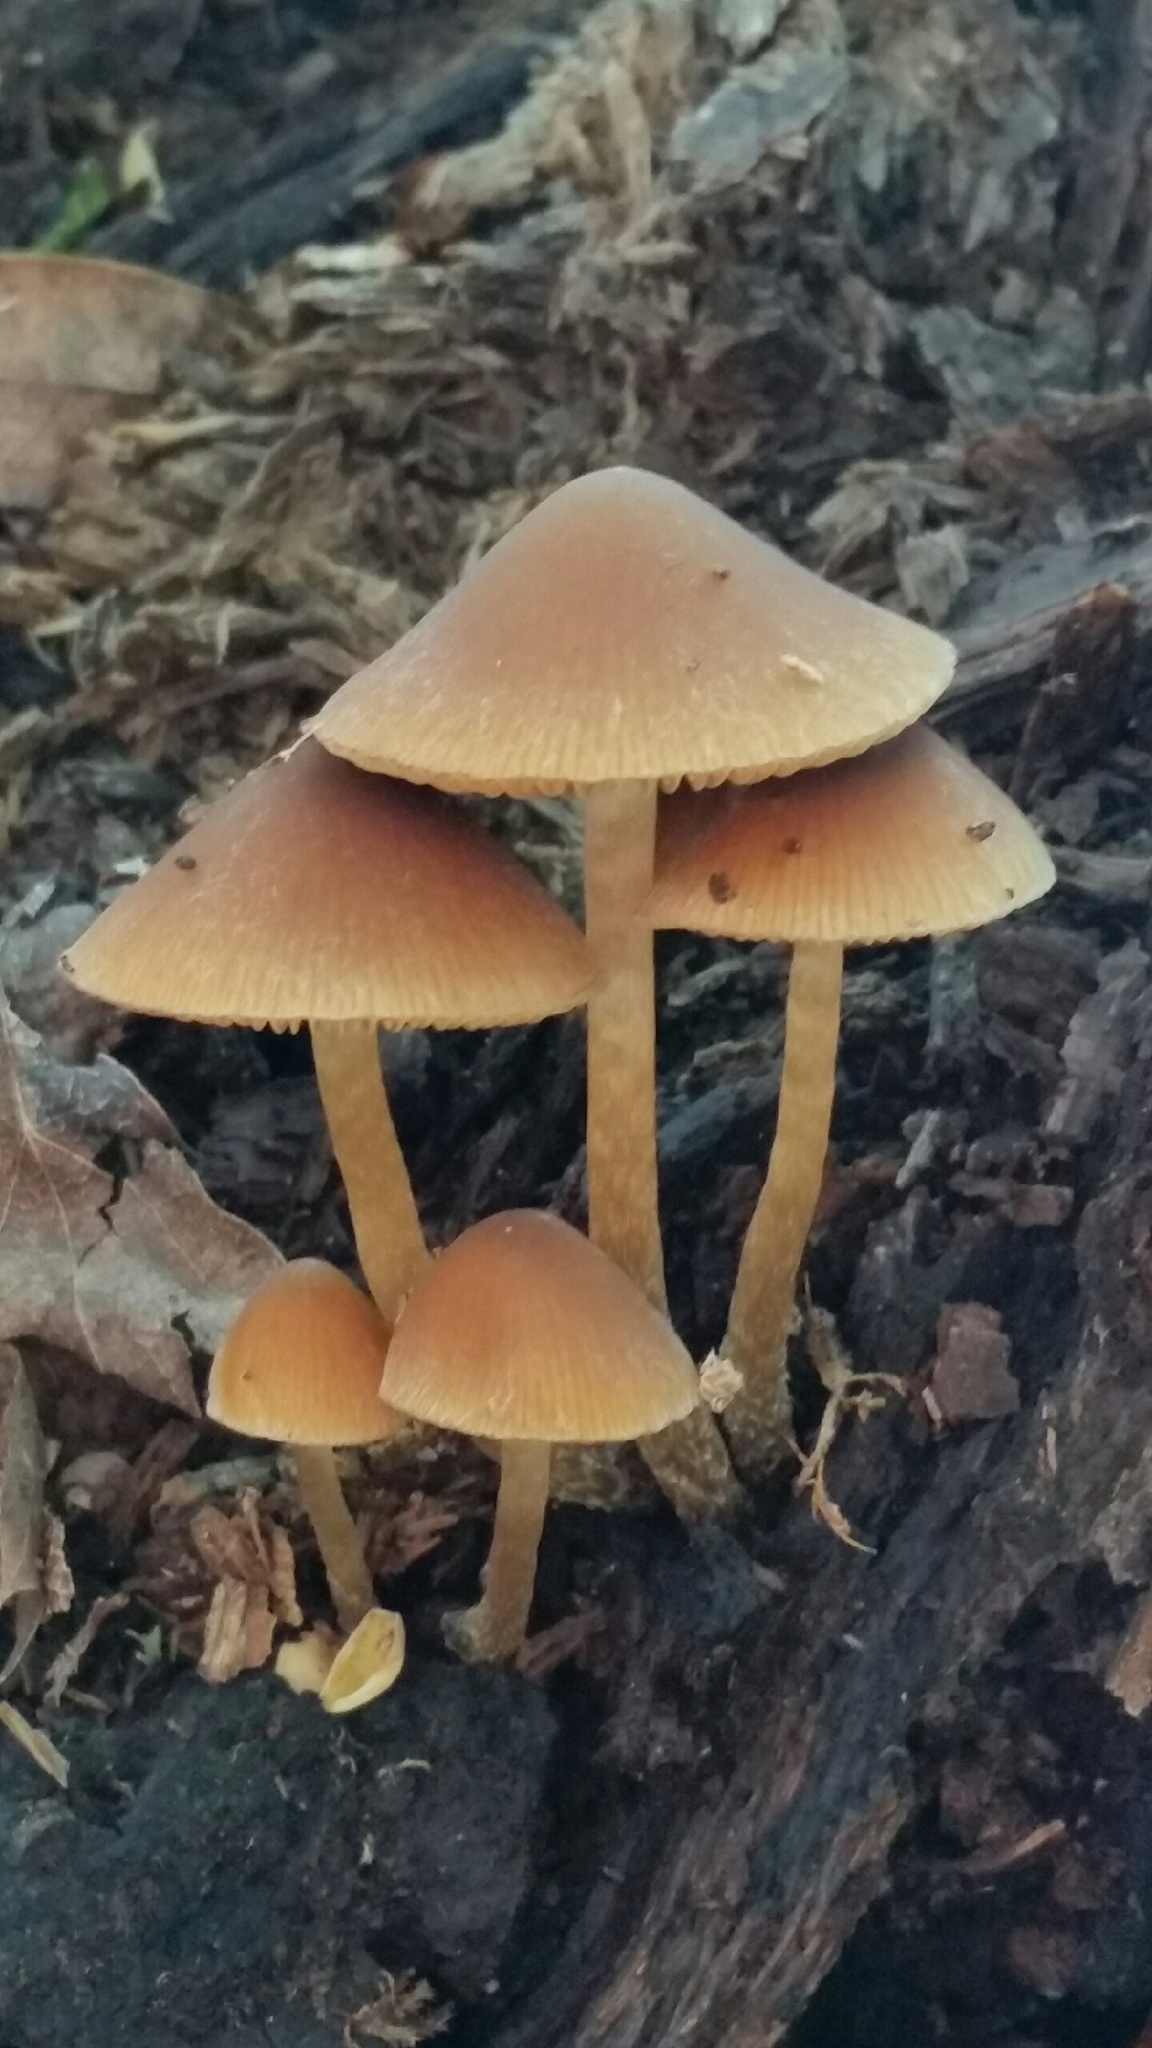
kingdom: Fungi
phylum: Basidiomycota
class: Agaricomycetes
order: Agaricales
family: Bolbitiaceae
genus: Conocybe
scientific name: Conocybe tenera
